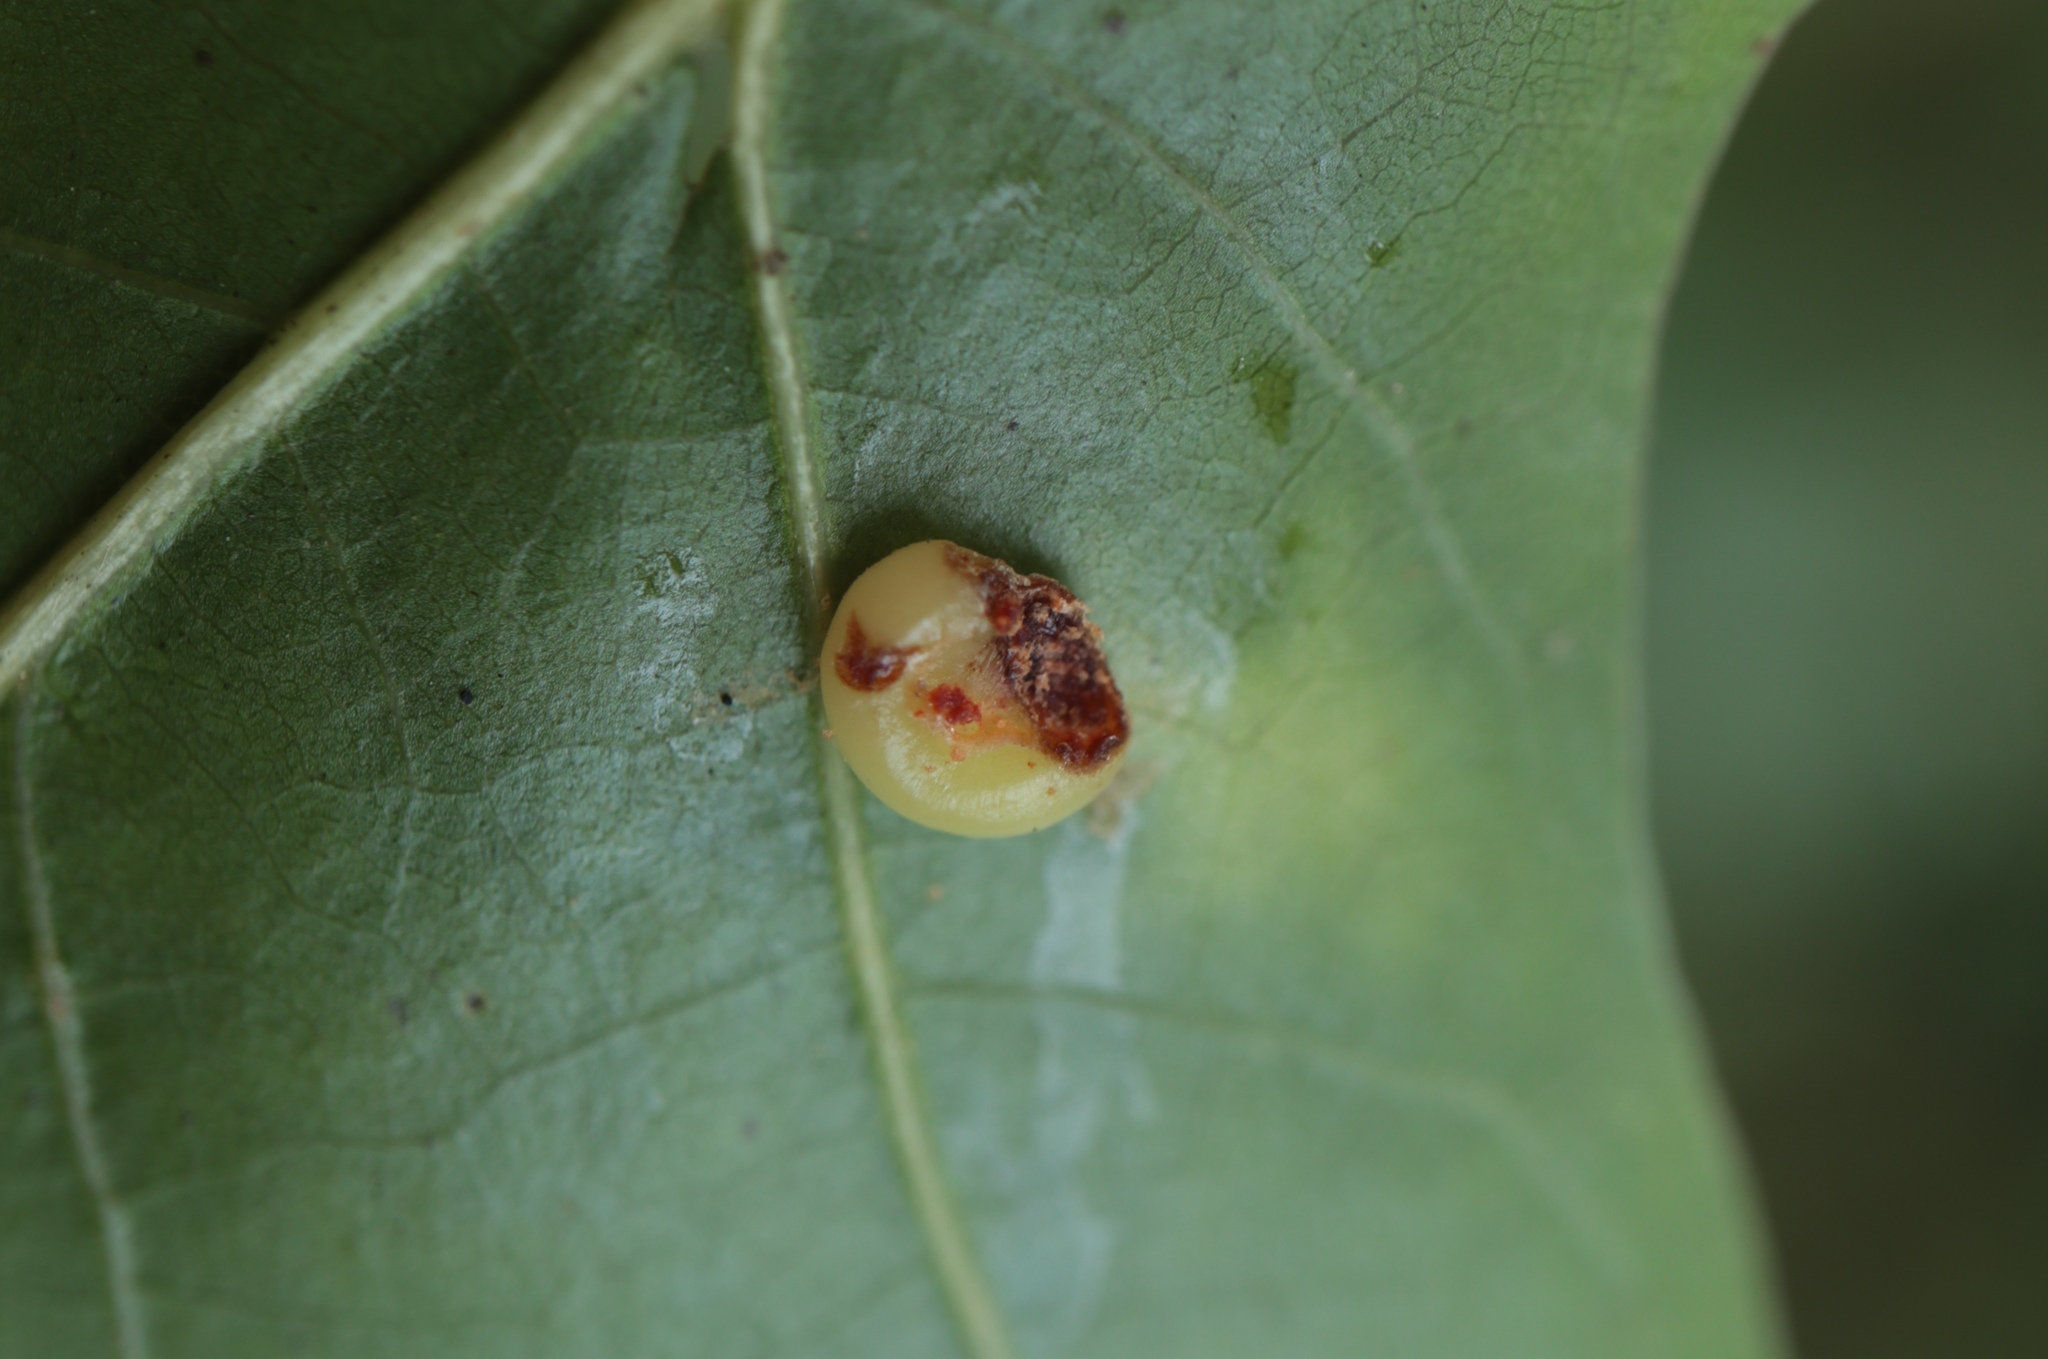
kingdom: Animalia
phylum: Arthropoda
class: Insecta
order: Hymenoptera
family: Cynipidae
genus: Dryocosmus
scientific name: Dryocosmus
